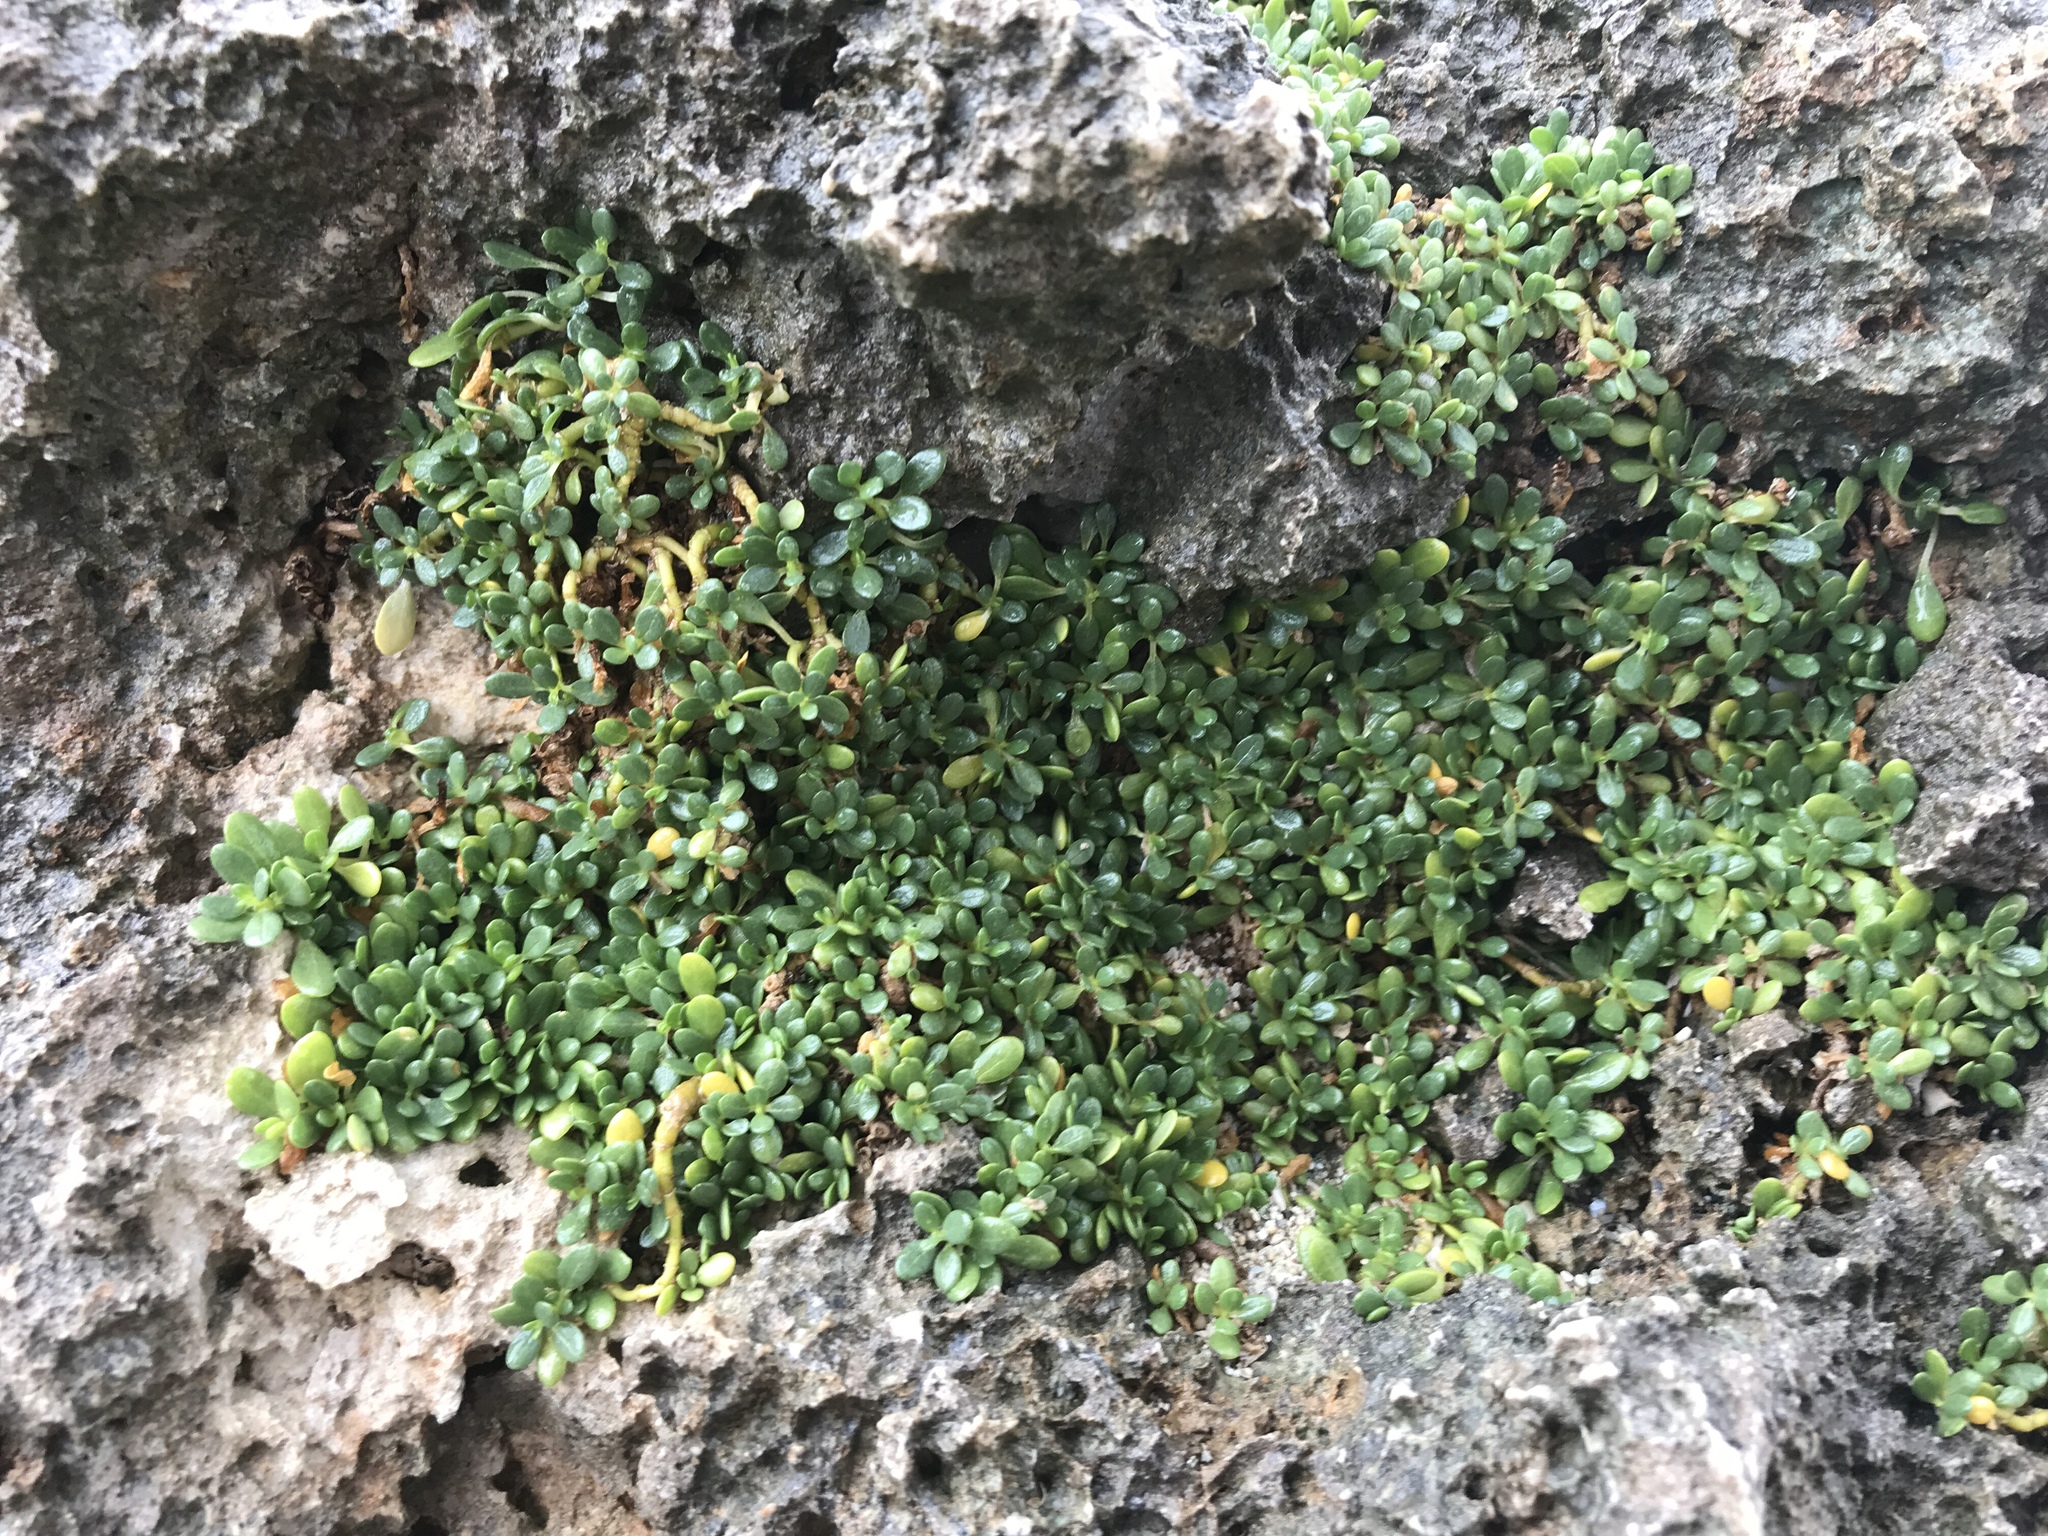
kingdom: Plantae
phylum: Tracheophyta
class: Magnoliopsida
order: Caryophyllales
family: Amaranthaceae
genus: Gomphrena
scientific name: Gomphrena wrightii
